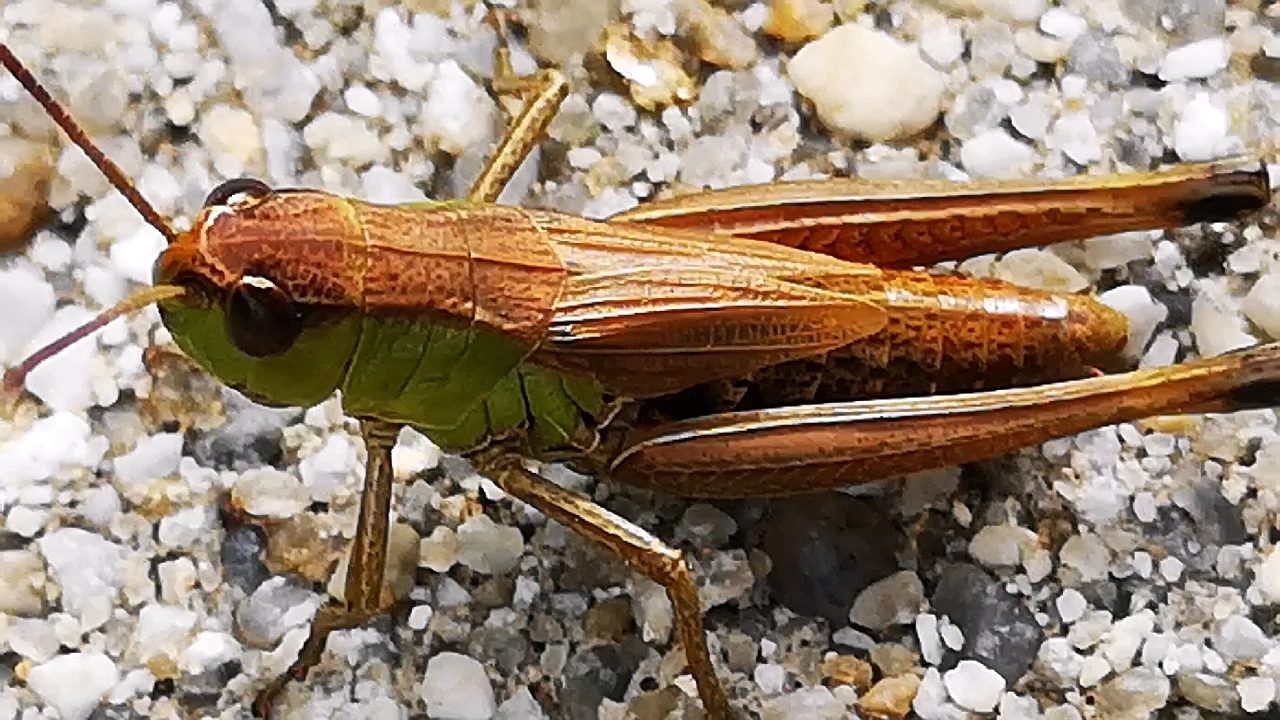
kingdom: Animalia
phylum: Arthropoda
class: Insecta
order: Orthoptera
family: Acrididae
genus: Pseudochorthippus
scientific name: Pseudochorthippus parallelus
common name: Meadow grasshopper
